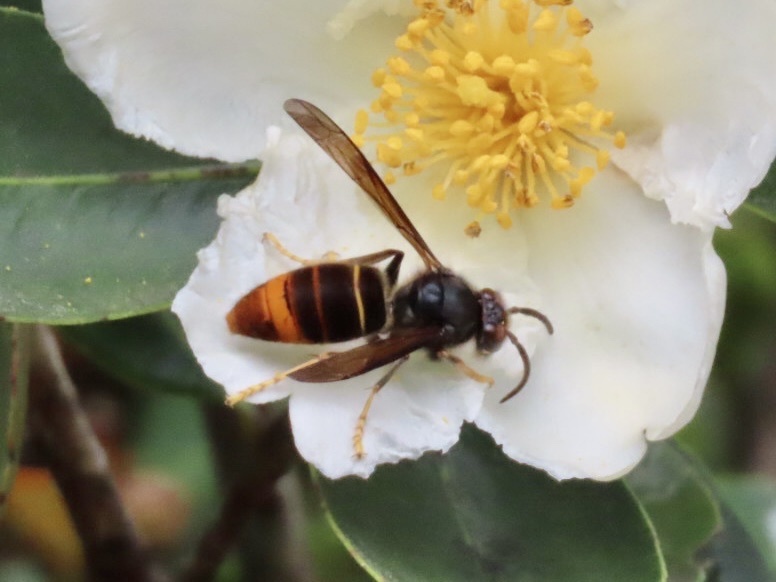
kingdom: Animalia
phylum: Arthropoda
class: Insecta
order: Hymenoptera
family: Vespidae
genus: Vespa
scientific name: Vespa velutina
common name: Asian hornet
